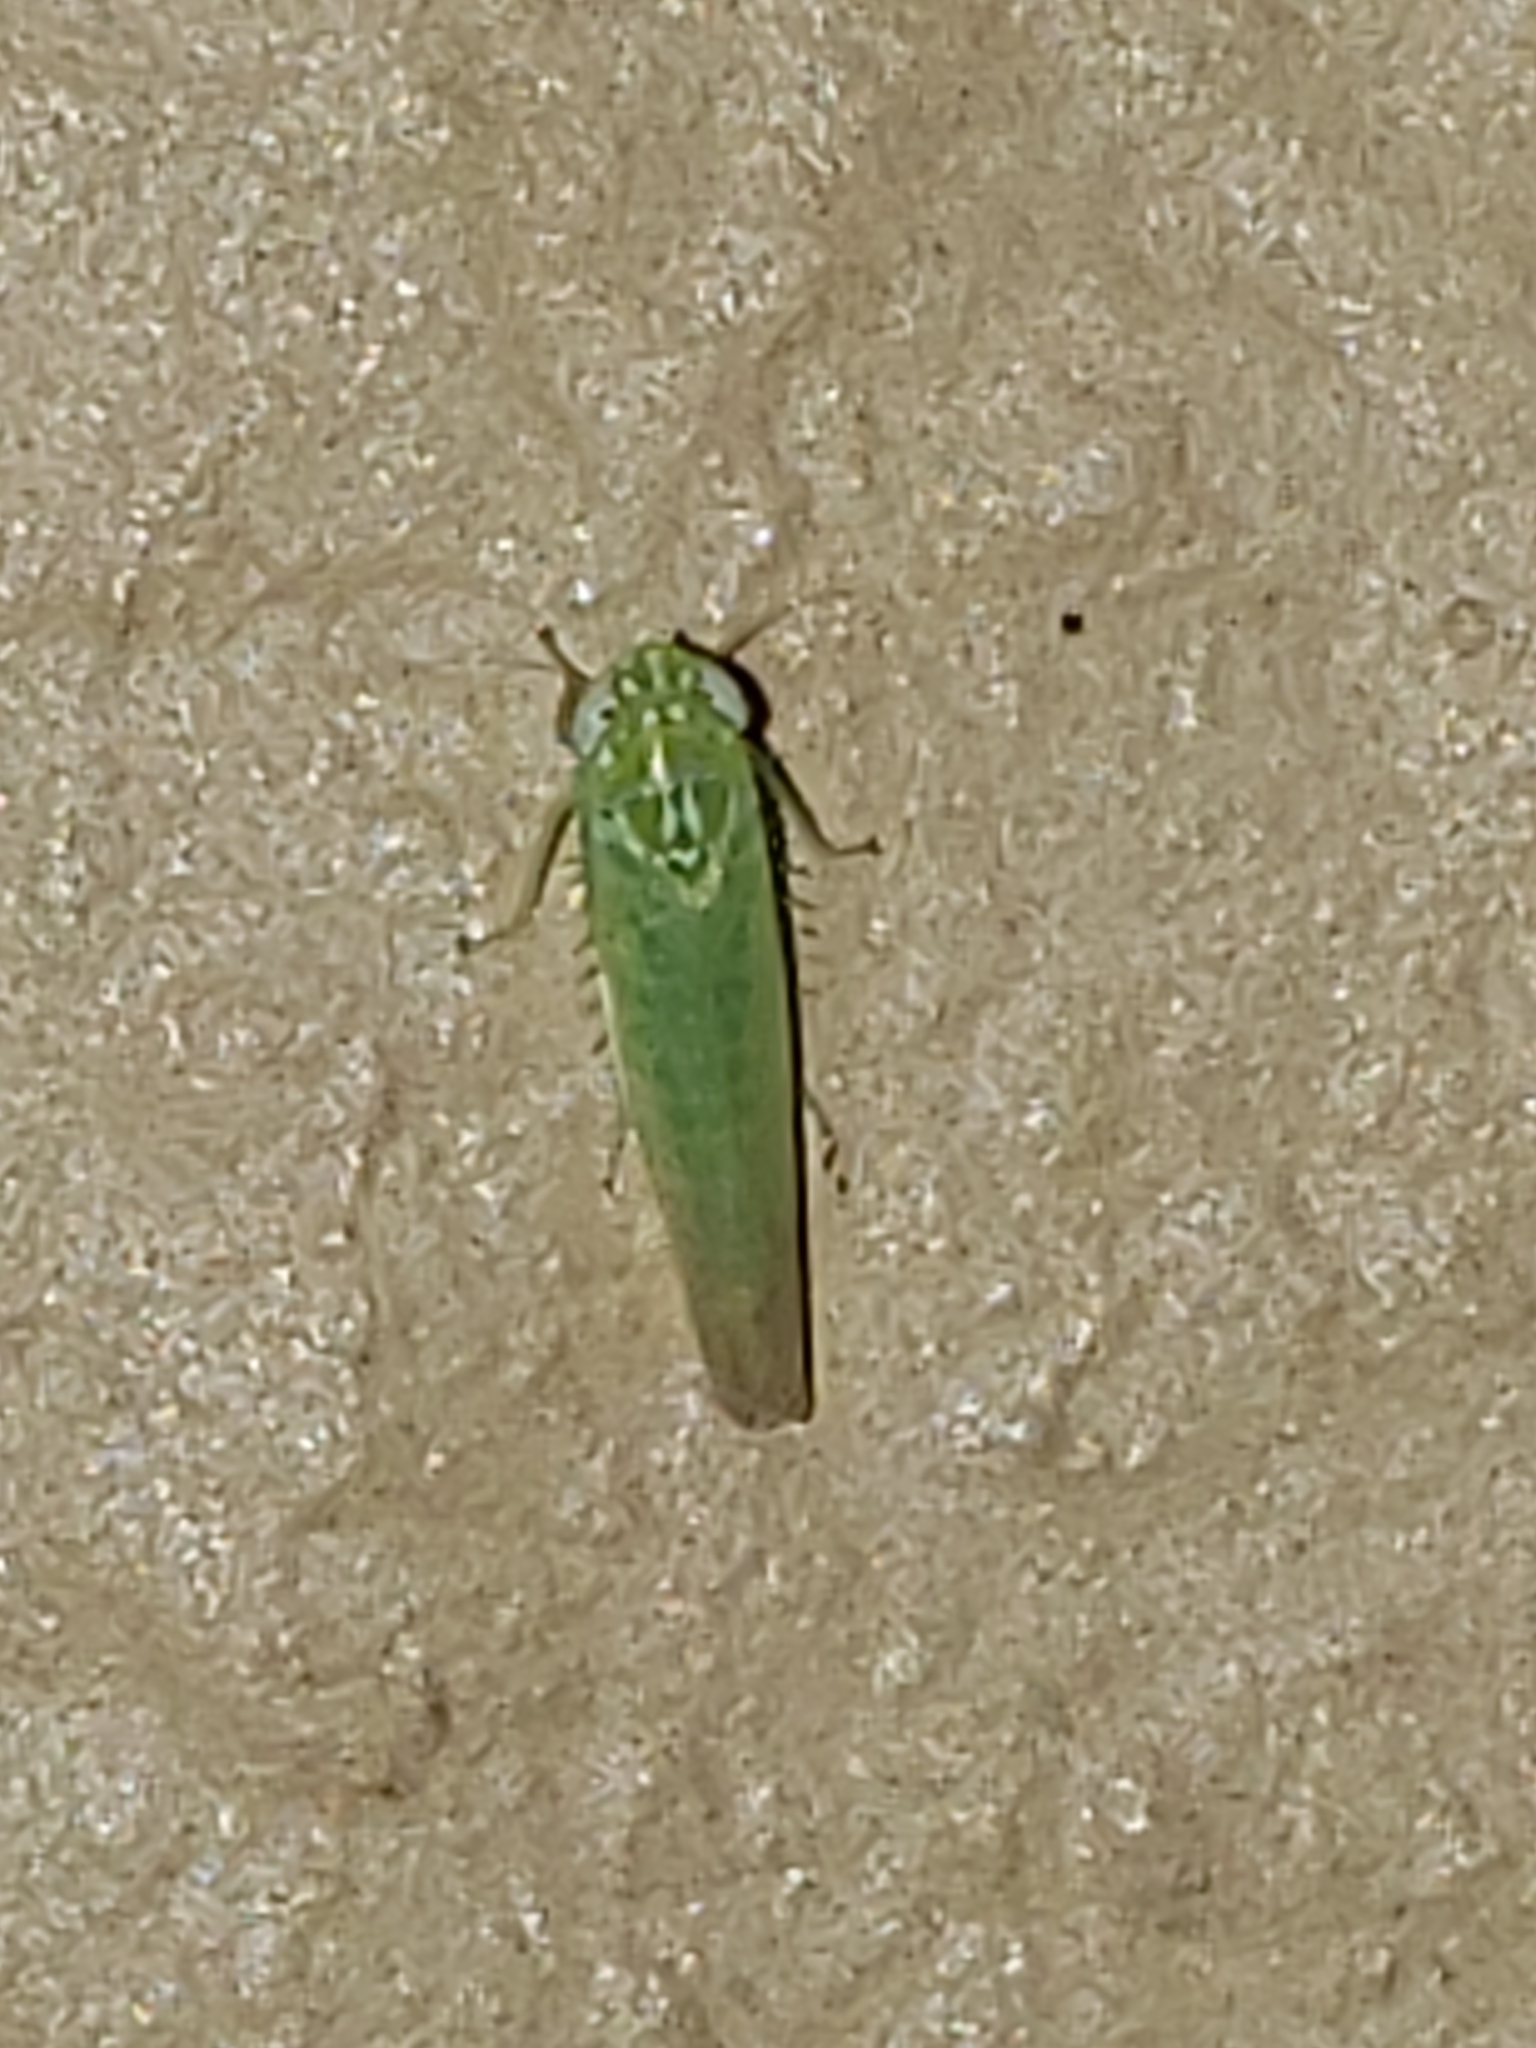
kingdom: Animalia
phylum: Arthropoda
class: Insecta
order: Hemiptera
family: Cicadellidae
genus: Empoasca
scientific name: Empoasca fabae
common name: Potato leafhopper
